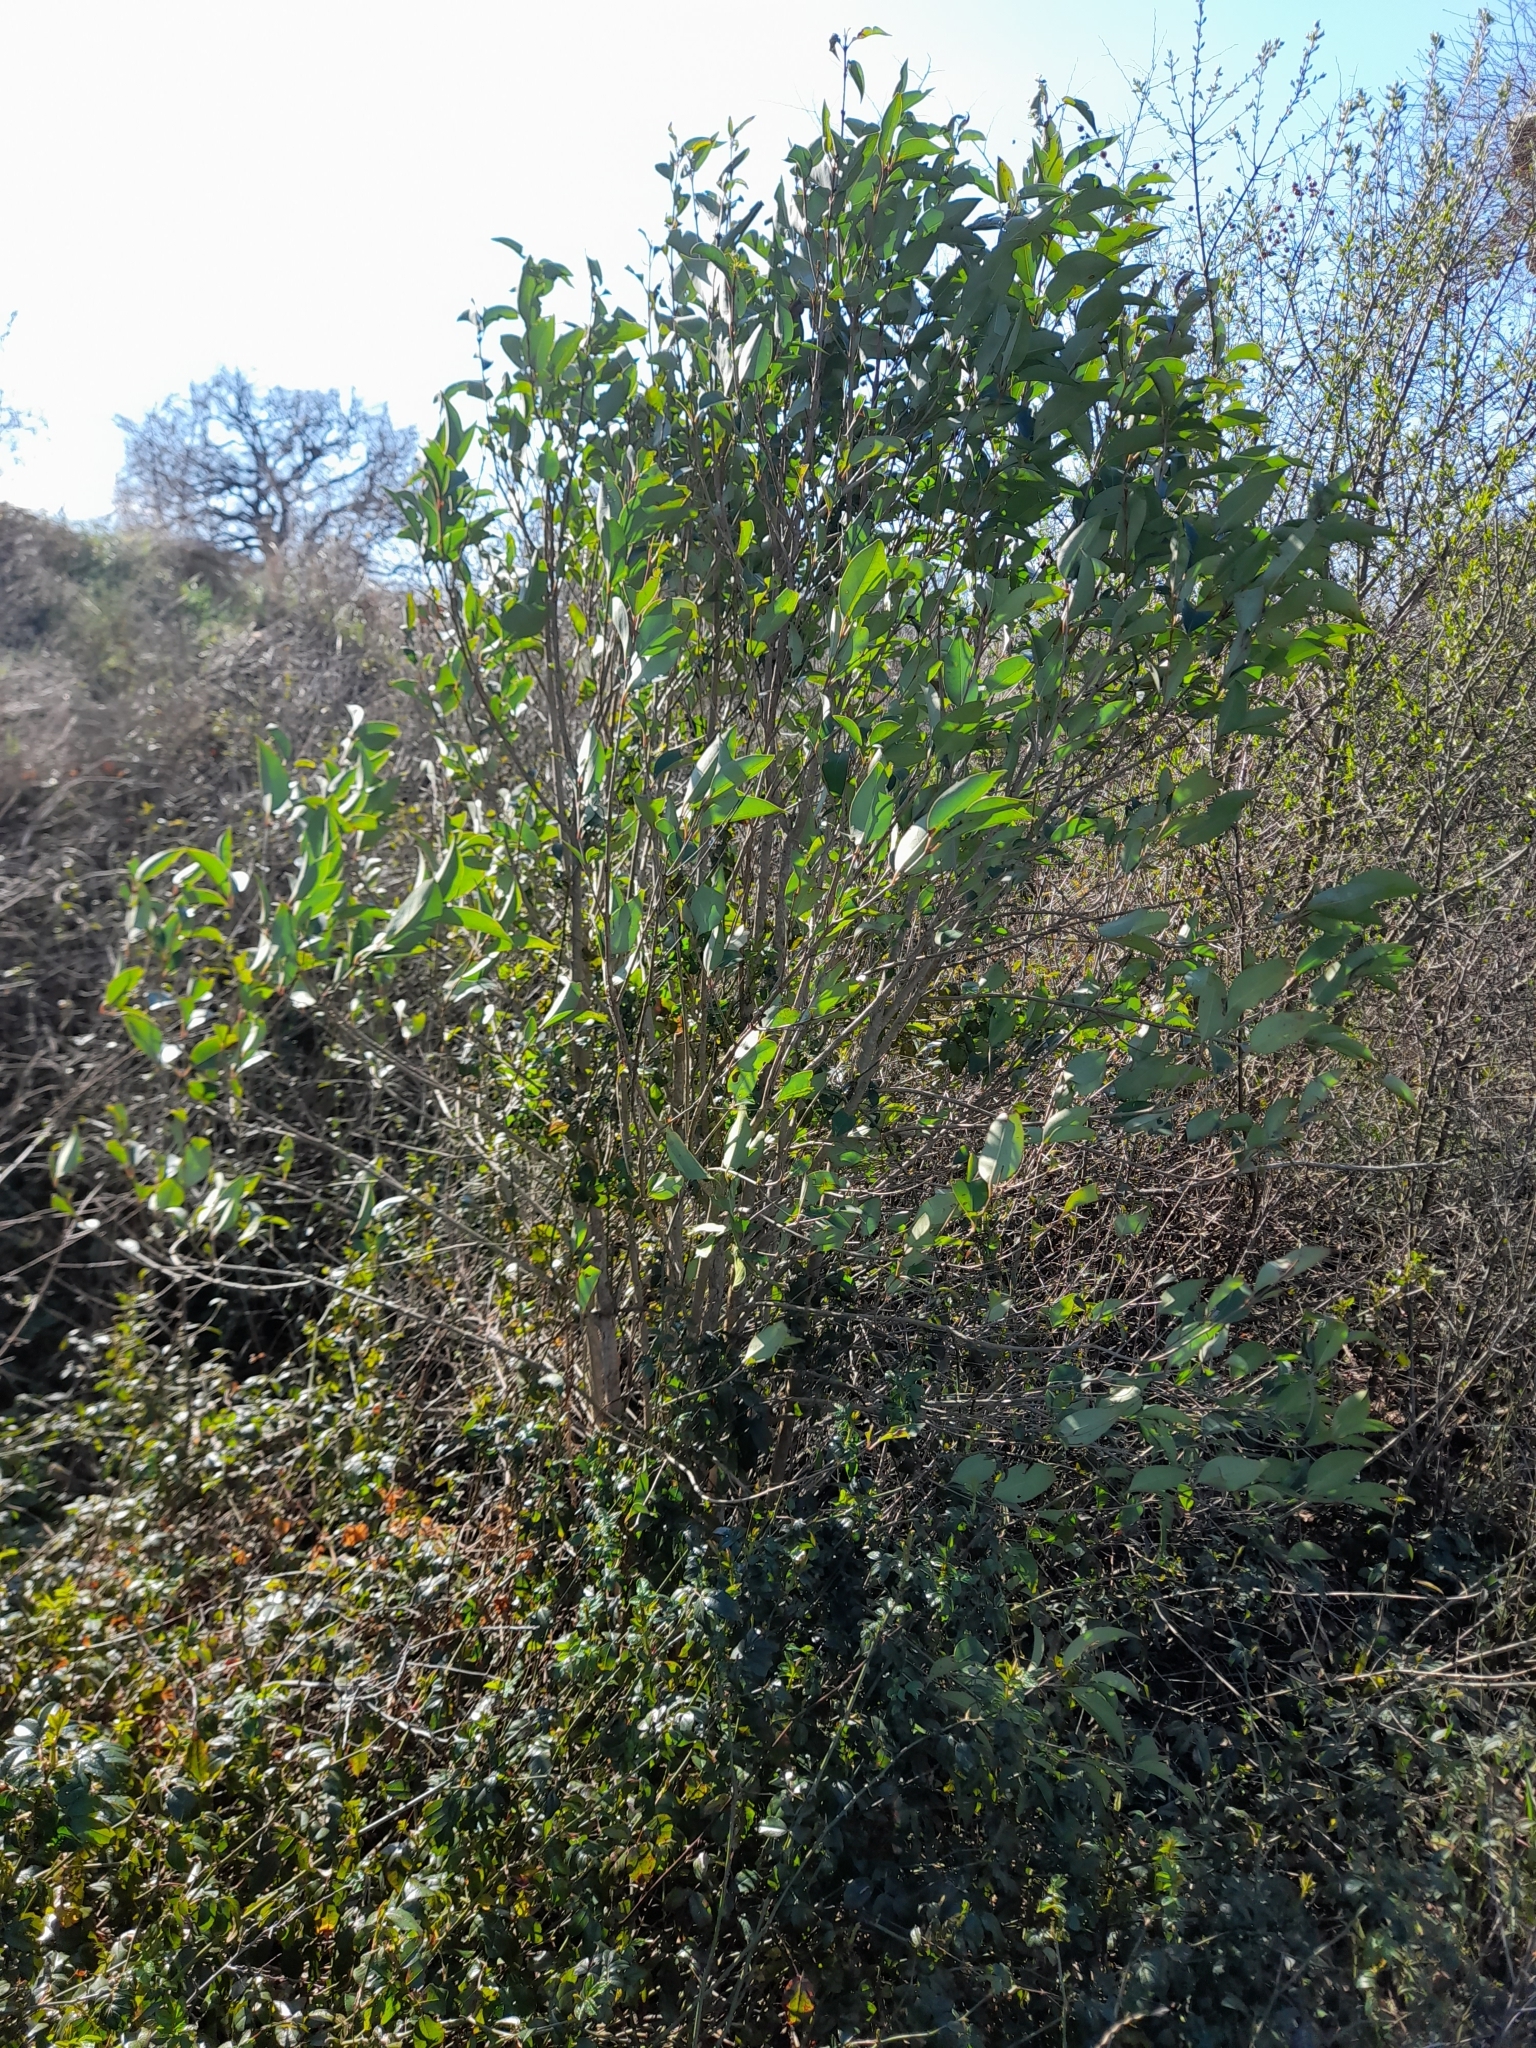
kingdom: Plantae
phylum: Tracheophyta
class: Magnoliopsida
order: Lamiales
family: Oleaceae
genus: Ligustrum
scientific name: Ligustrum lucidum
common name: Glossy privet
